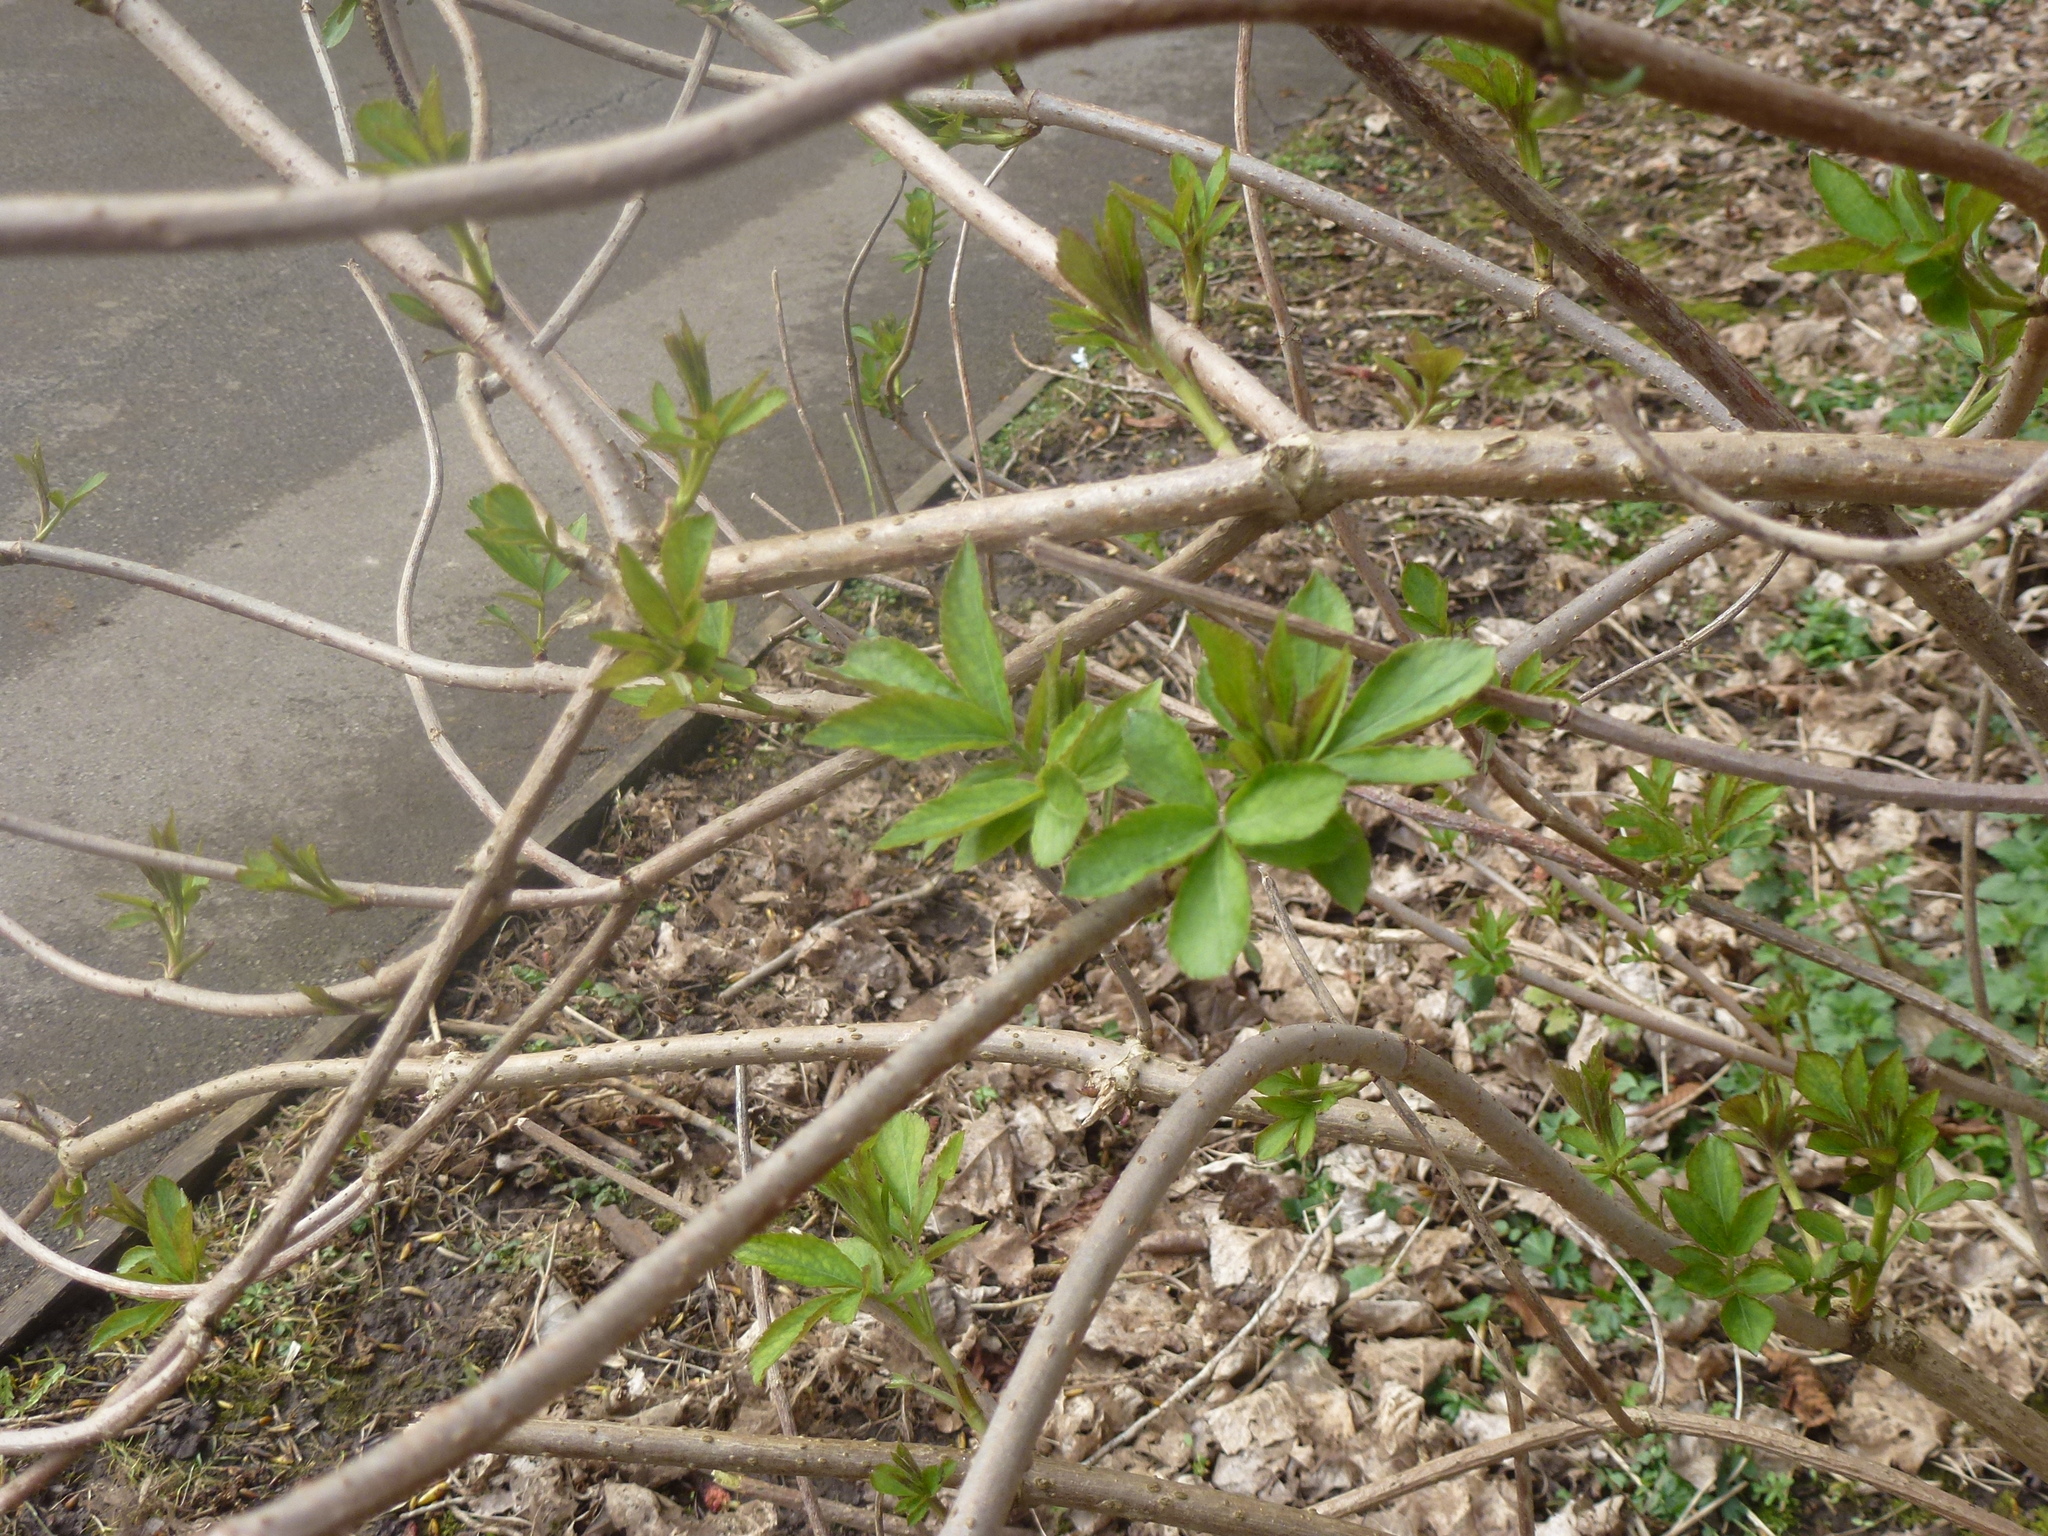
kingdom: Plantae
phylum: Tracheophyta
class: Magnoliopsida
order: Dipsacales
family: Viburnaceae
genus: Sambucus
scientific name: Sambucus nigra
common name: Elder
